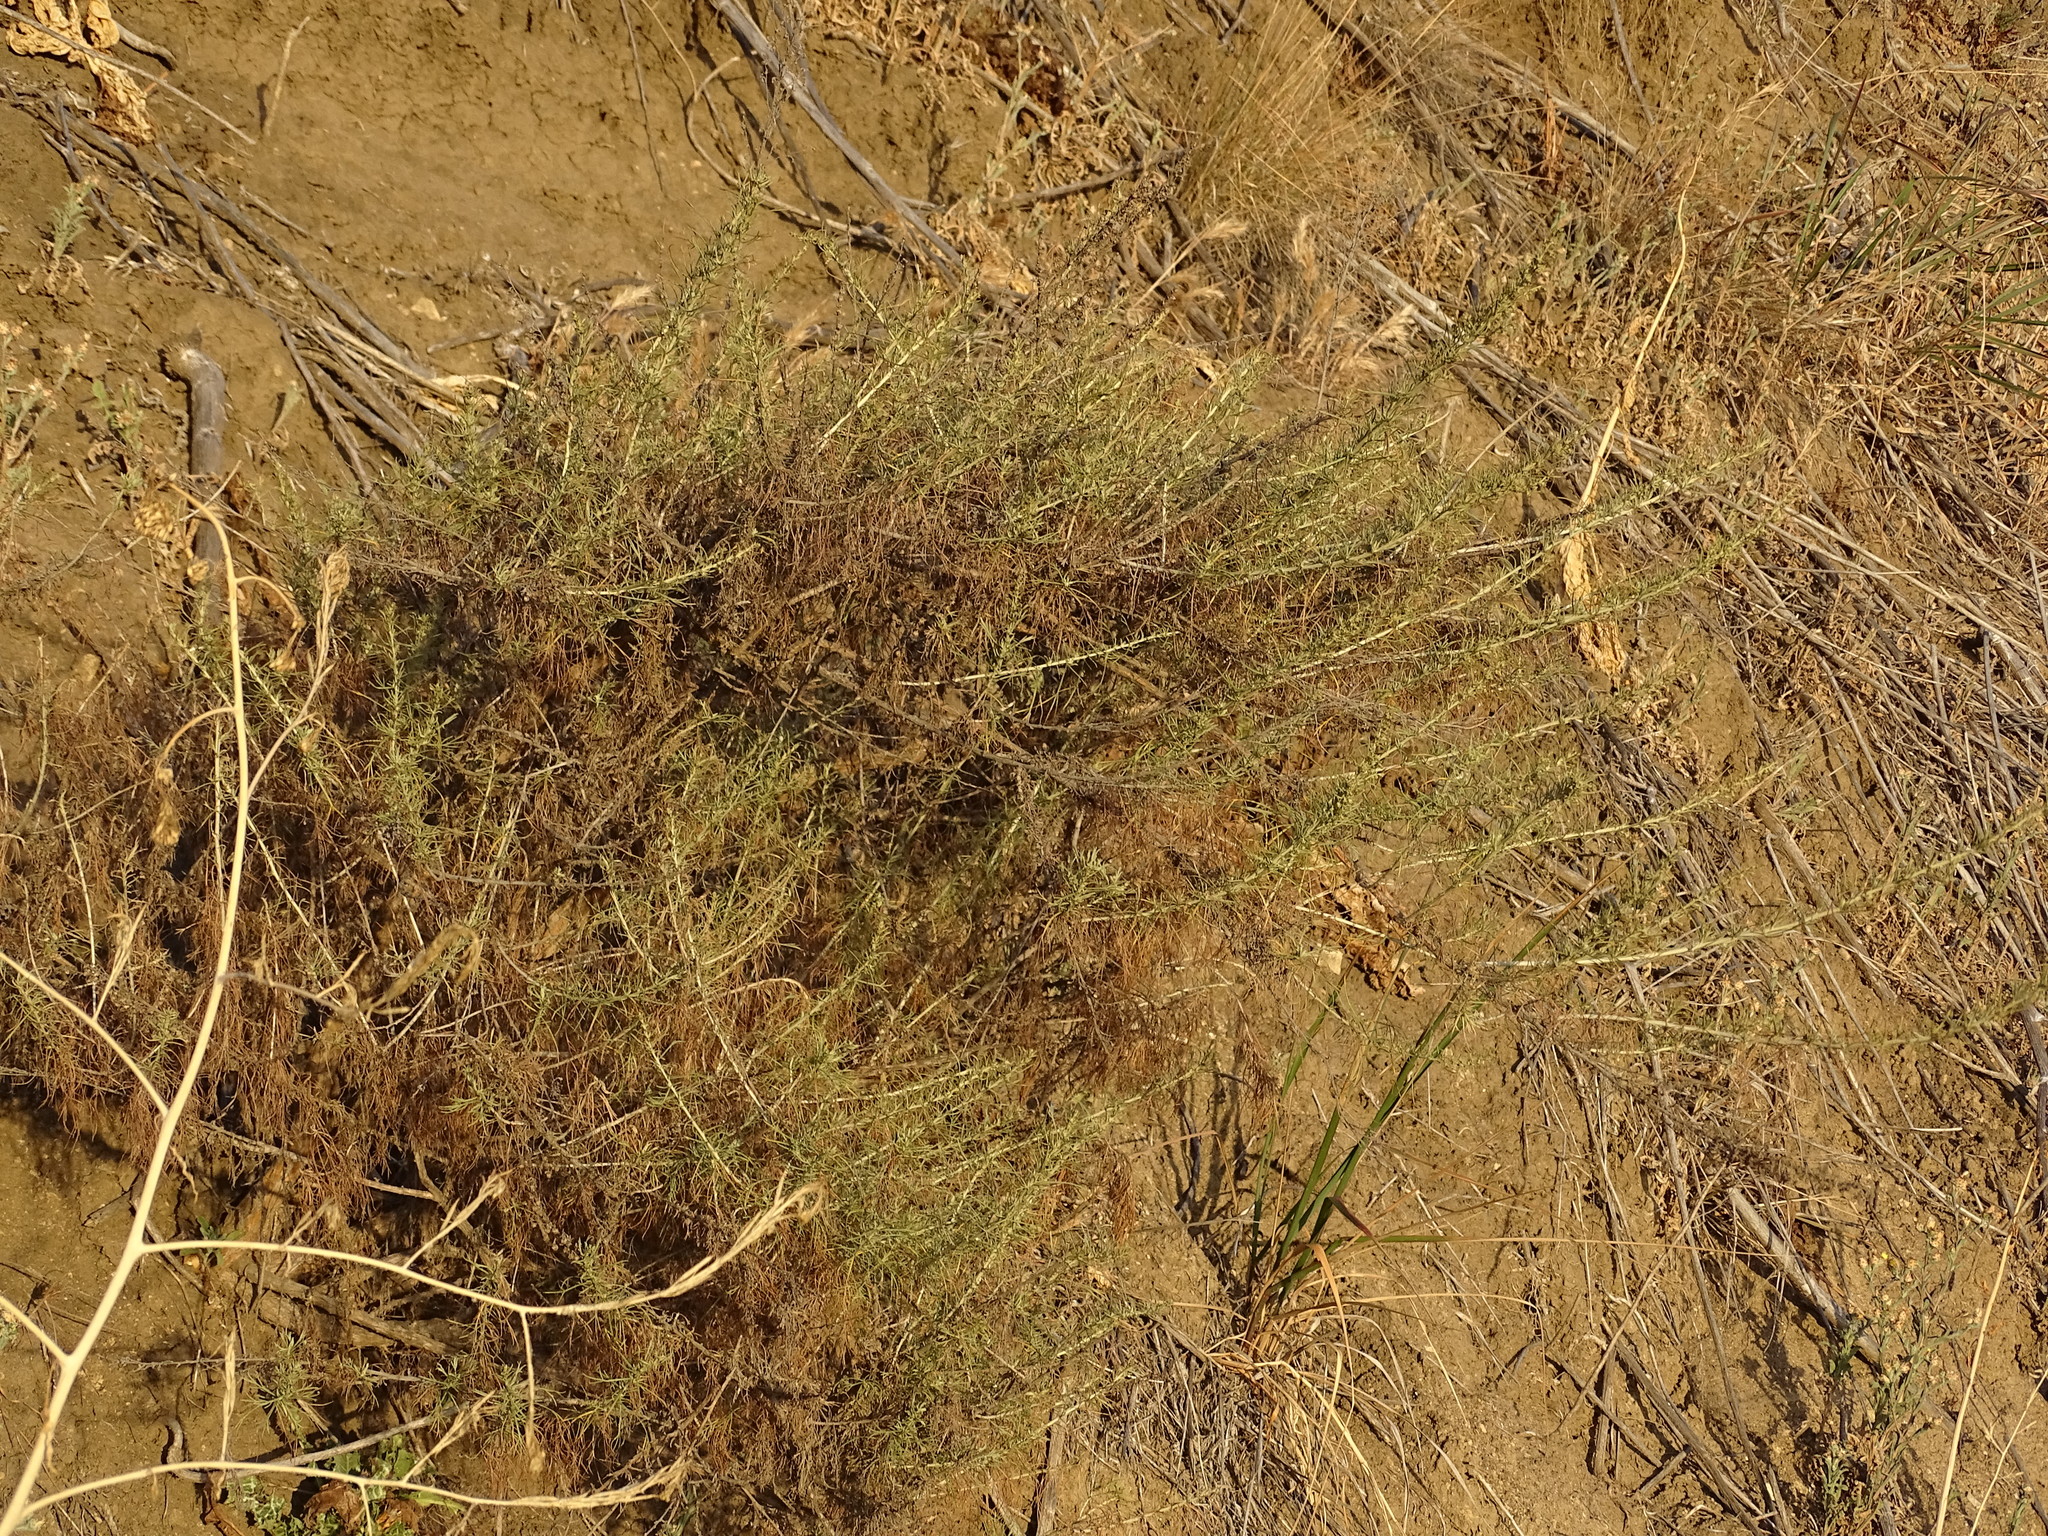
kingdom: Plantae
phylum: Tracheophyta
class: Magnoliopsida
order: Asterales
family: Asteraceae
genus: Artemisia
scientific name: Artemisia californica
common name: California sagebrush
